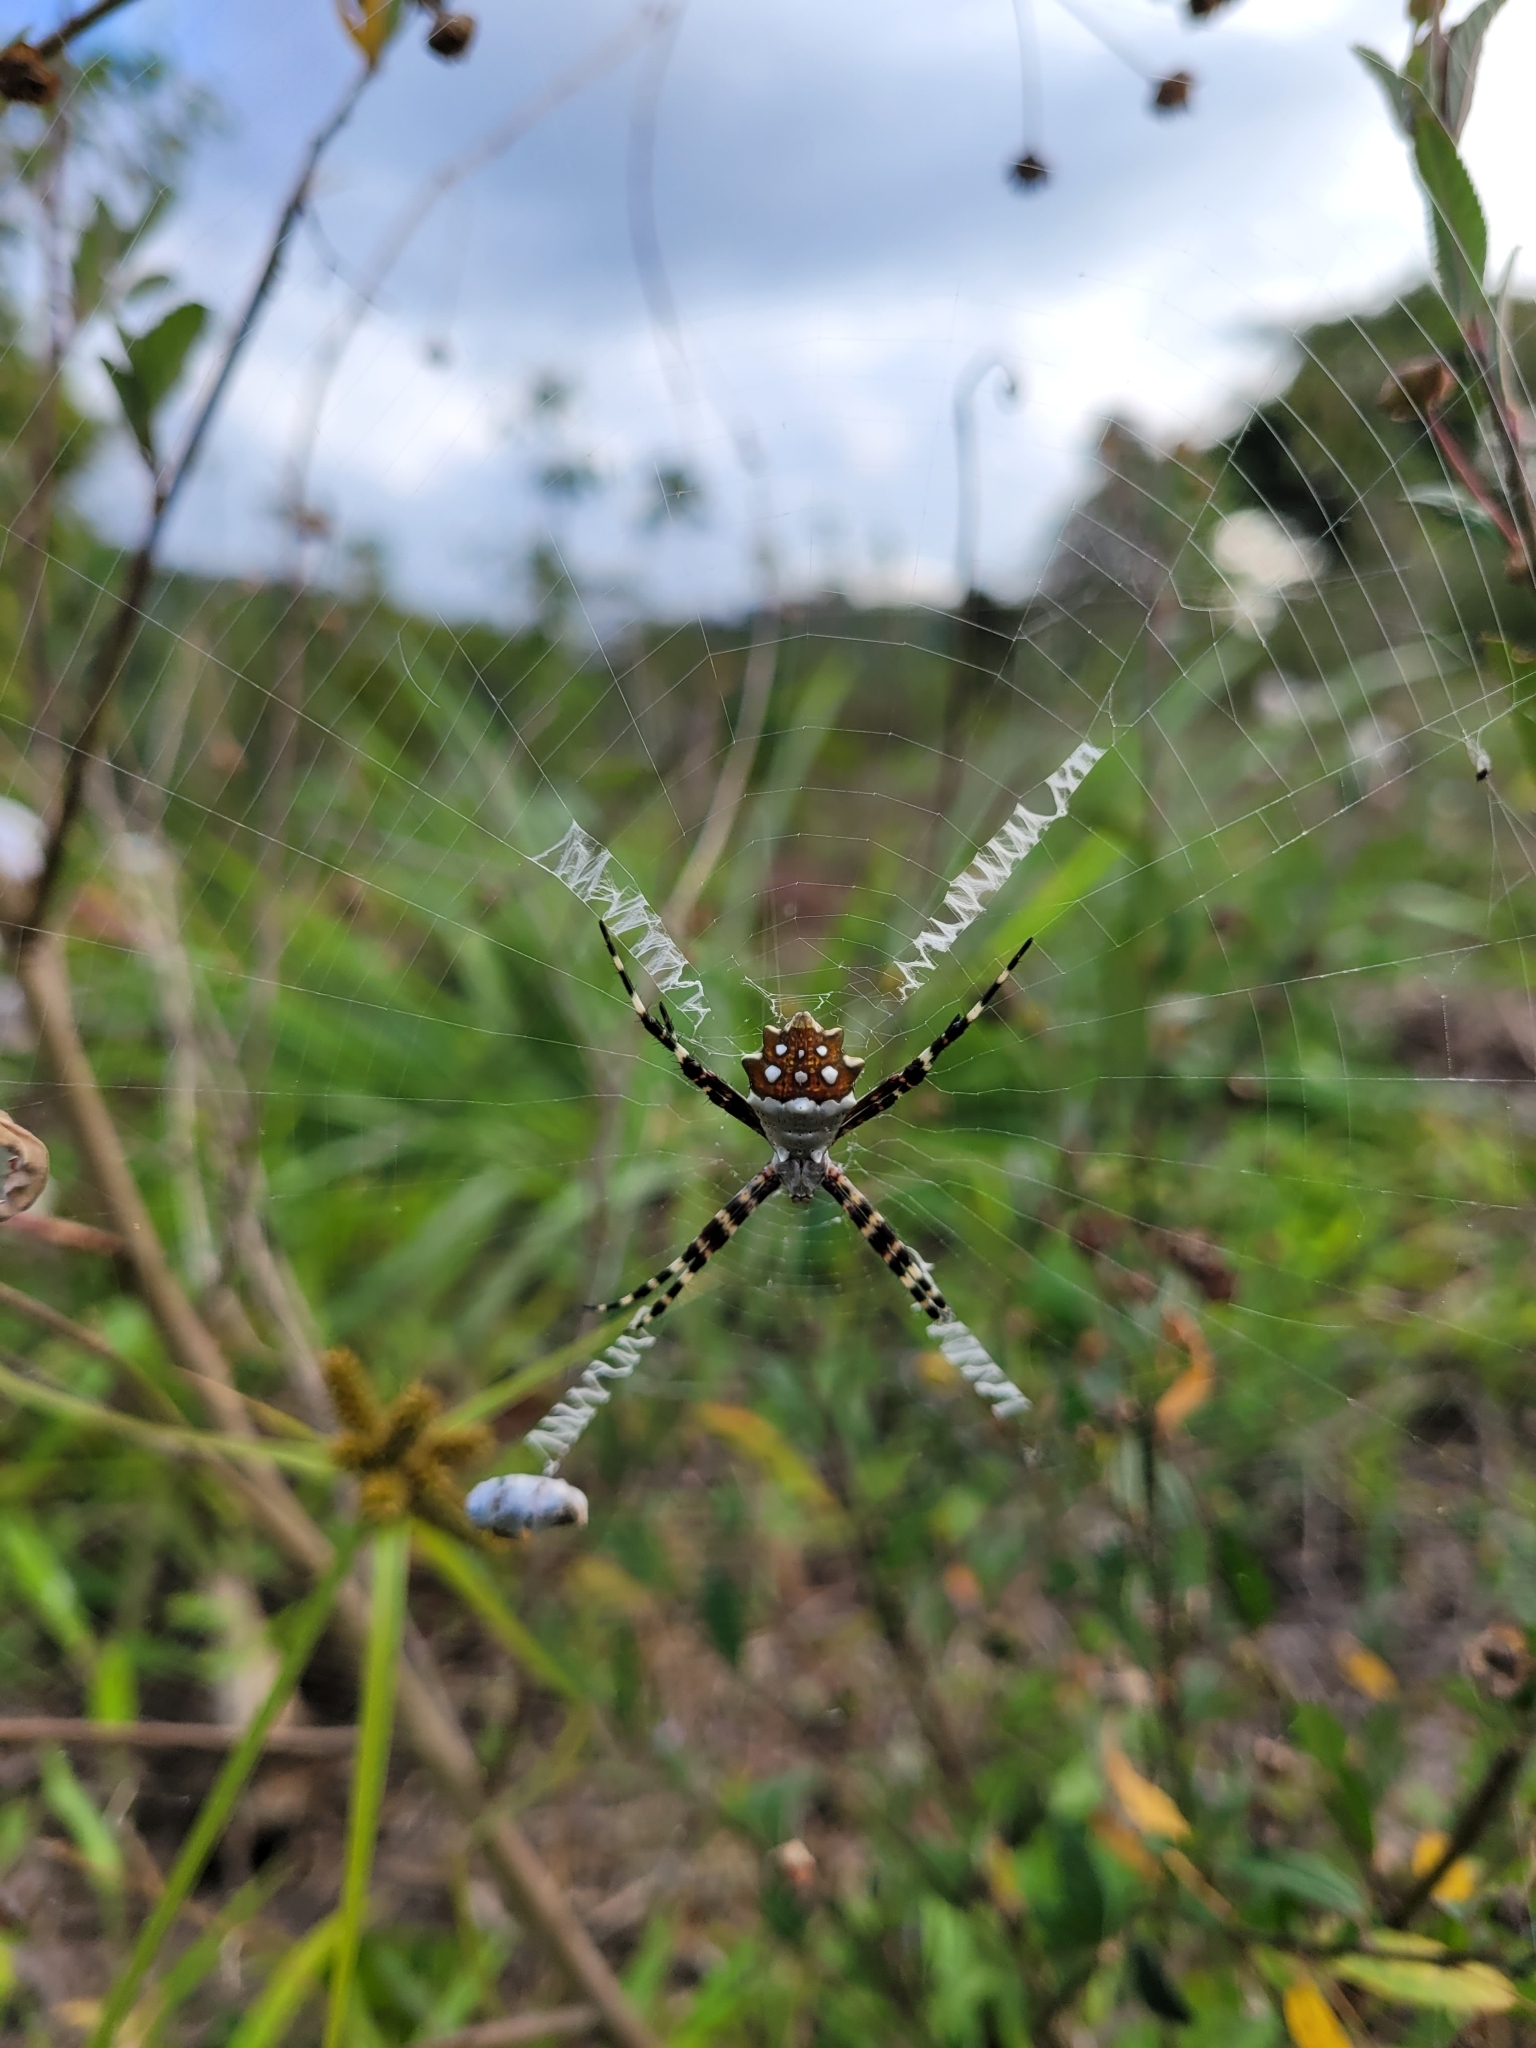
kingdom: Animalia
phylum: Arthropoda
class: Arachnida
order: Araneae
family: Araneidae
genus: Argiope
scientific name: Argiope argentata
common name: Orb weavers
